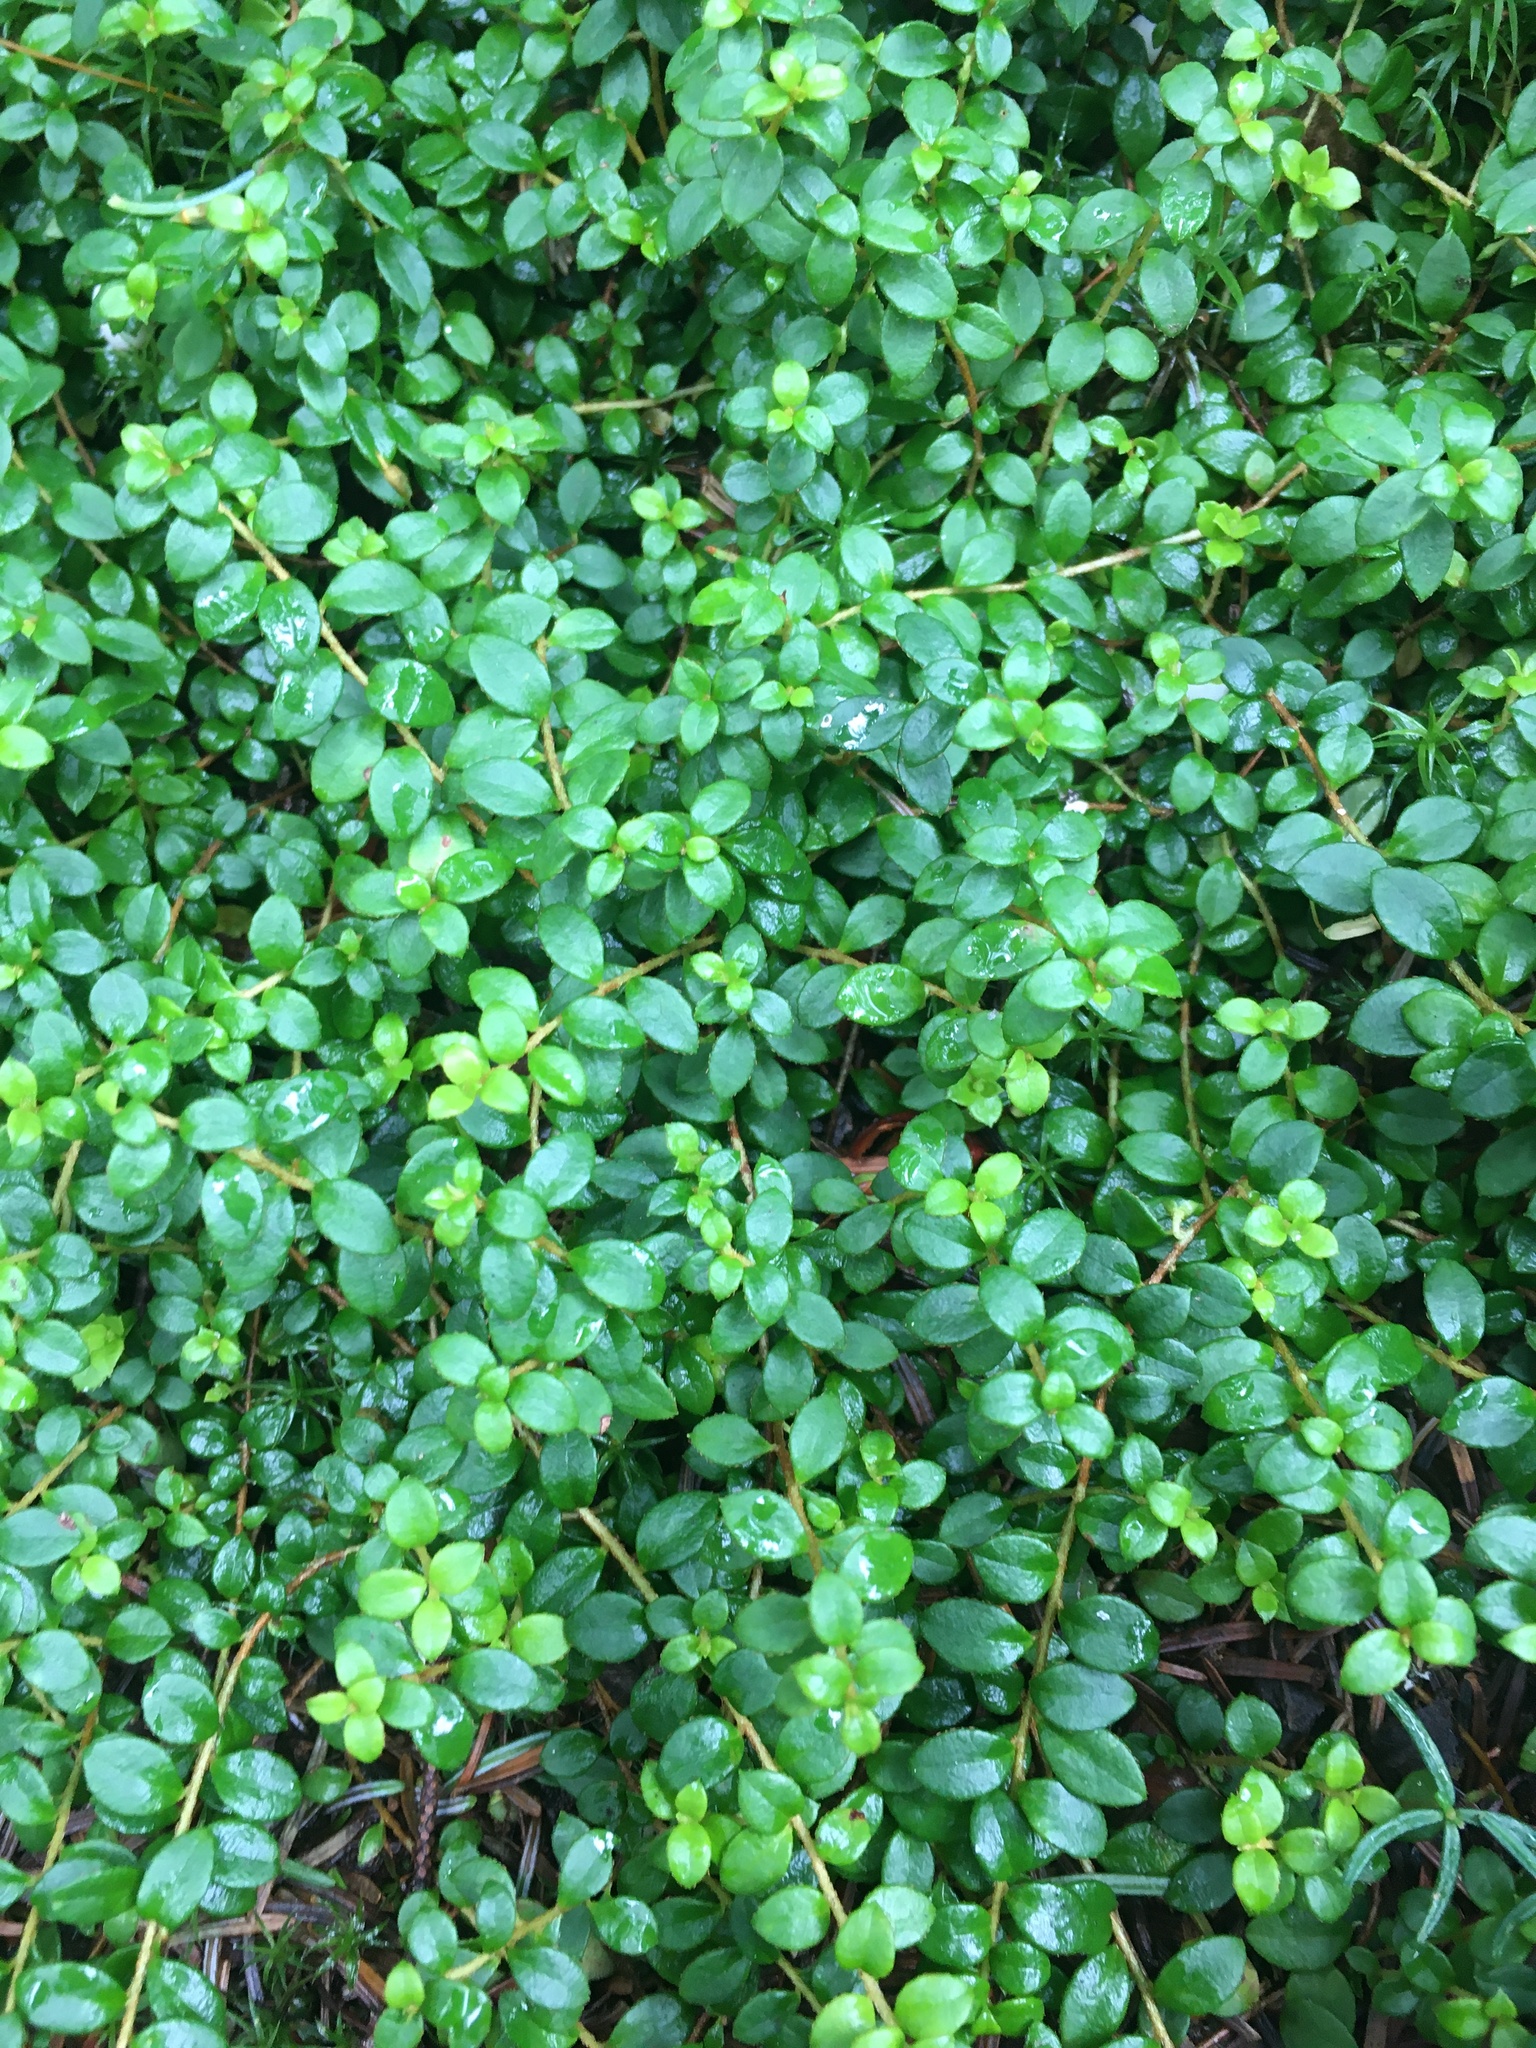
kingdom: Plantae
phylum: Tracheophyta
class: Magnoliopsida
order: Ericales
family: Ericaceae
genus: Gaultheria
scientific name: Gaultheria hispidula
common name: Cancer wintergreen
